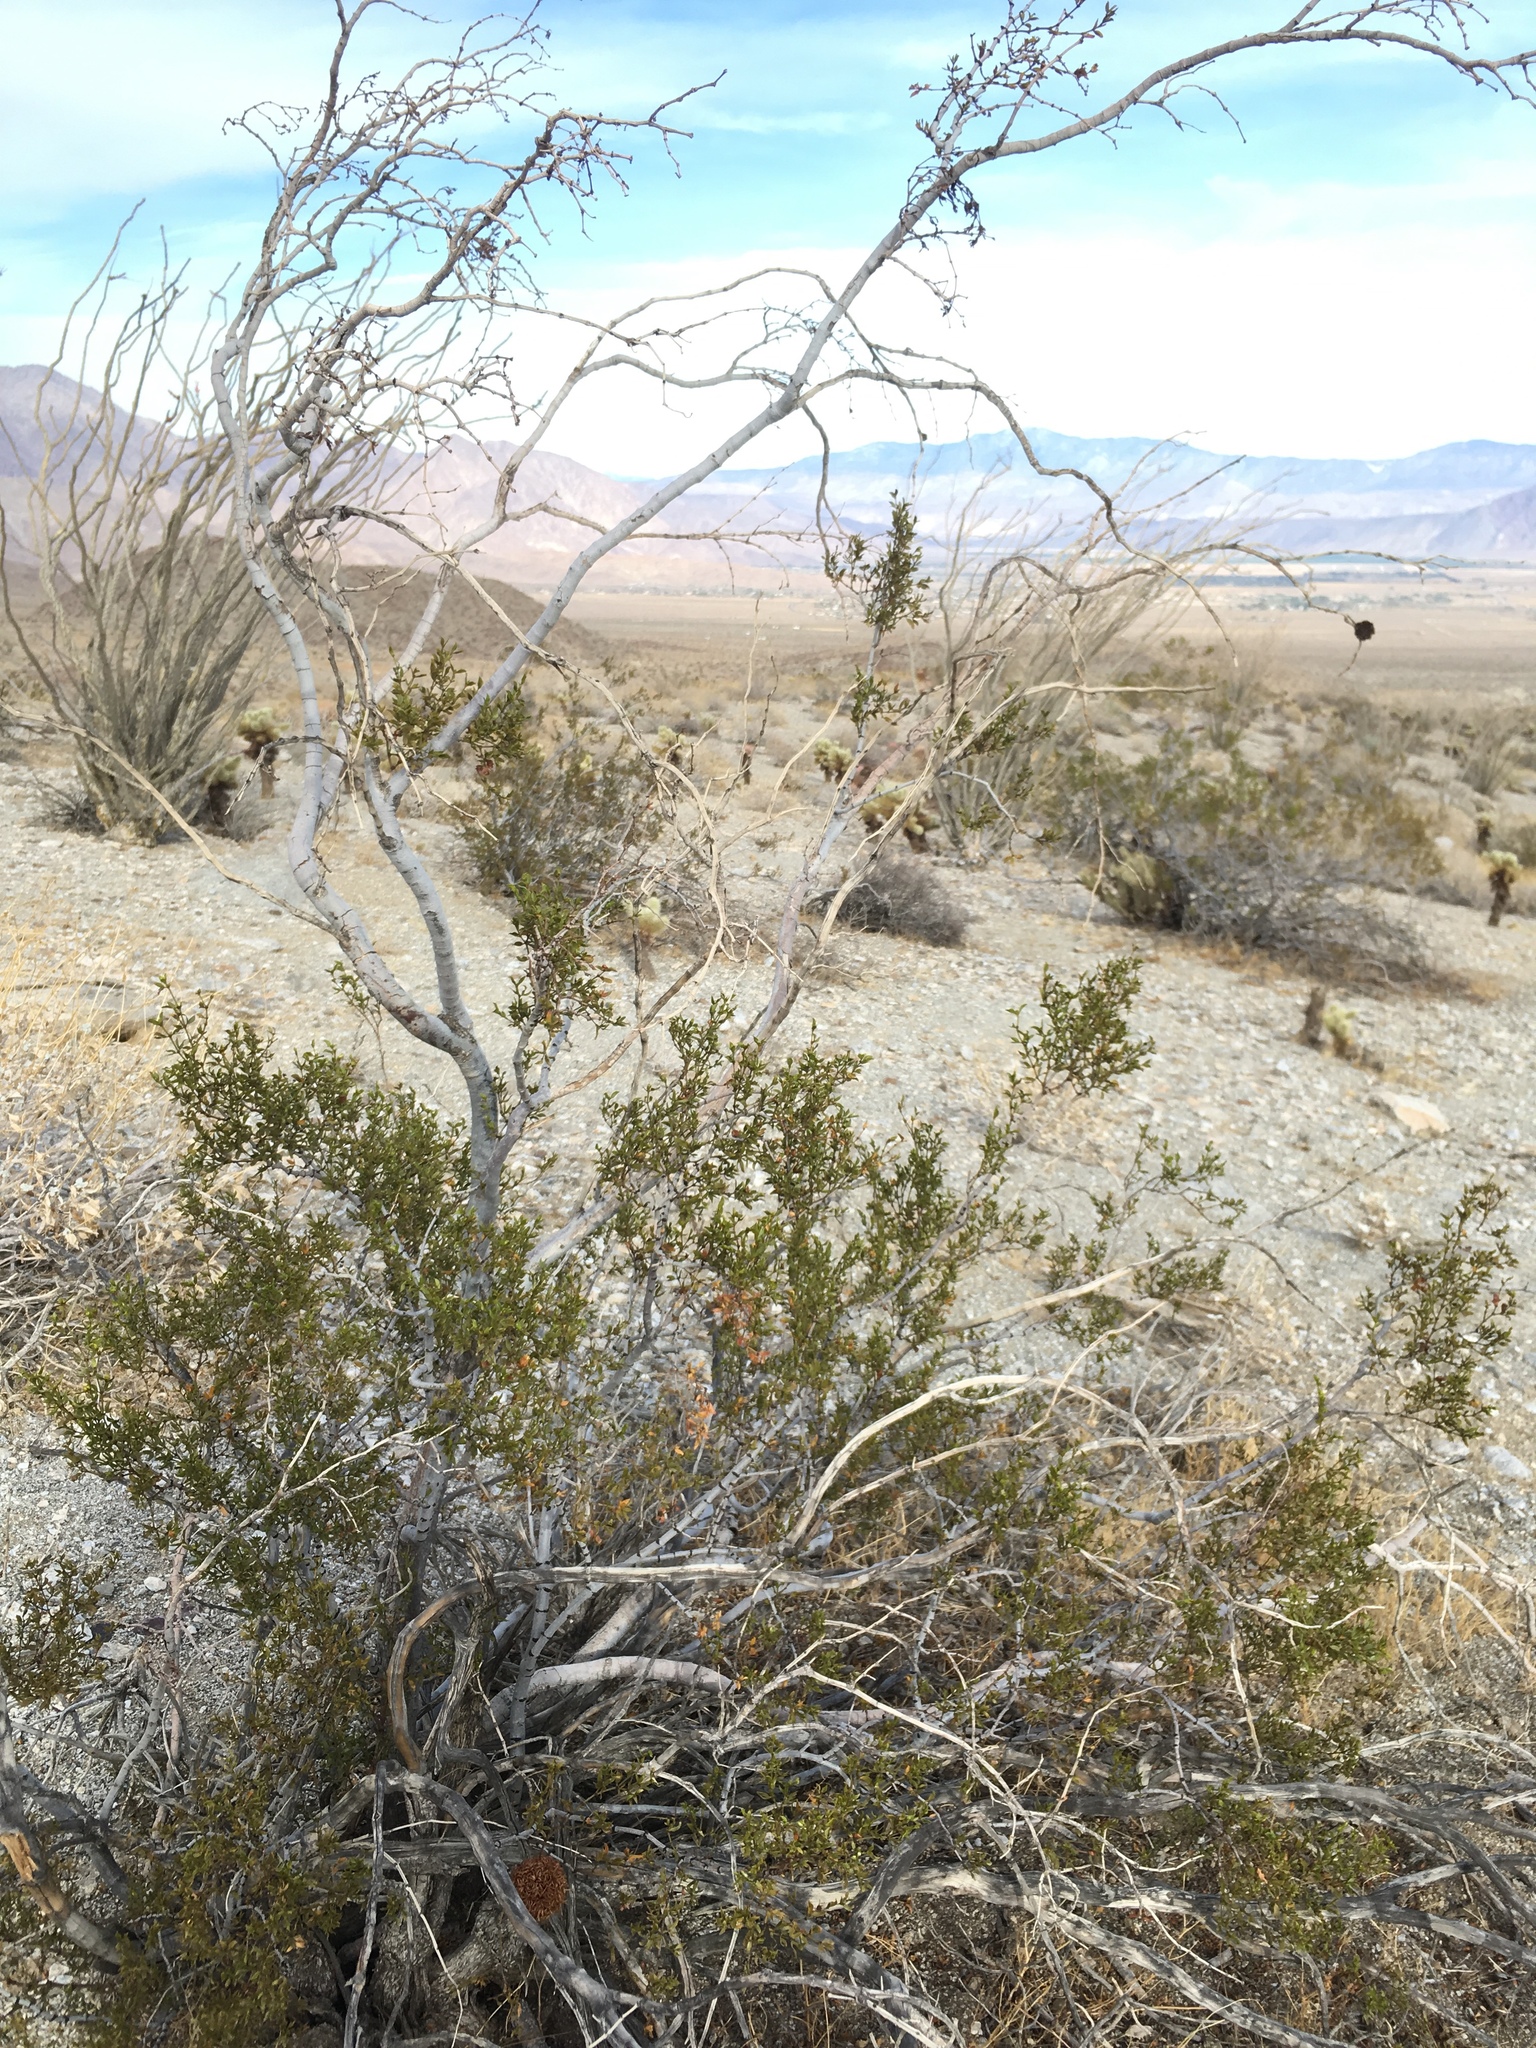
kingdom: Plantae
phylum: Tracheophyta
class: Magnoliopsida
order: Zygophyllales
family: Zygophyllaceae
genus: Larrea
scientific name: Larrea tridentata
